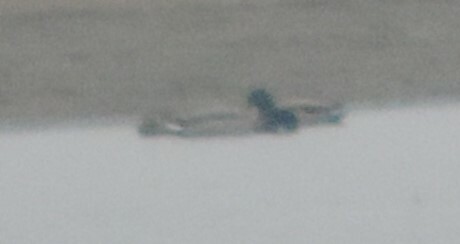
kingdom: Animalia
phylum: Chordata
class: Aves
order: Anseriformes
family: Anatidae
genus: Anas
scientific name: Anas platyrhynchos
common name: Mallard
